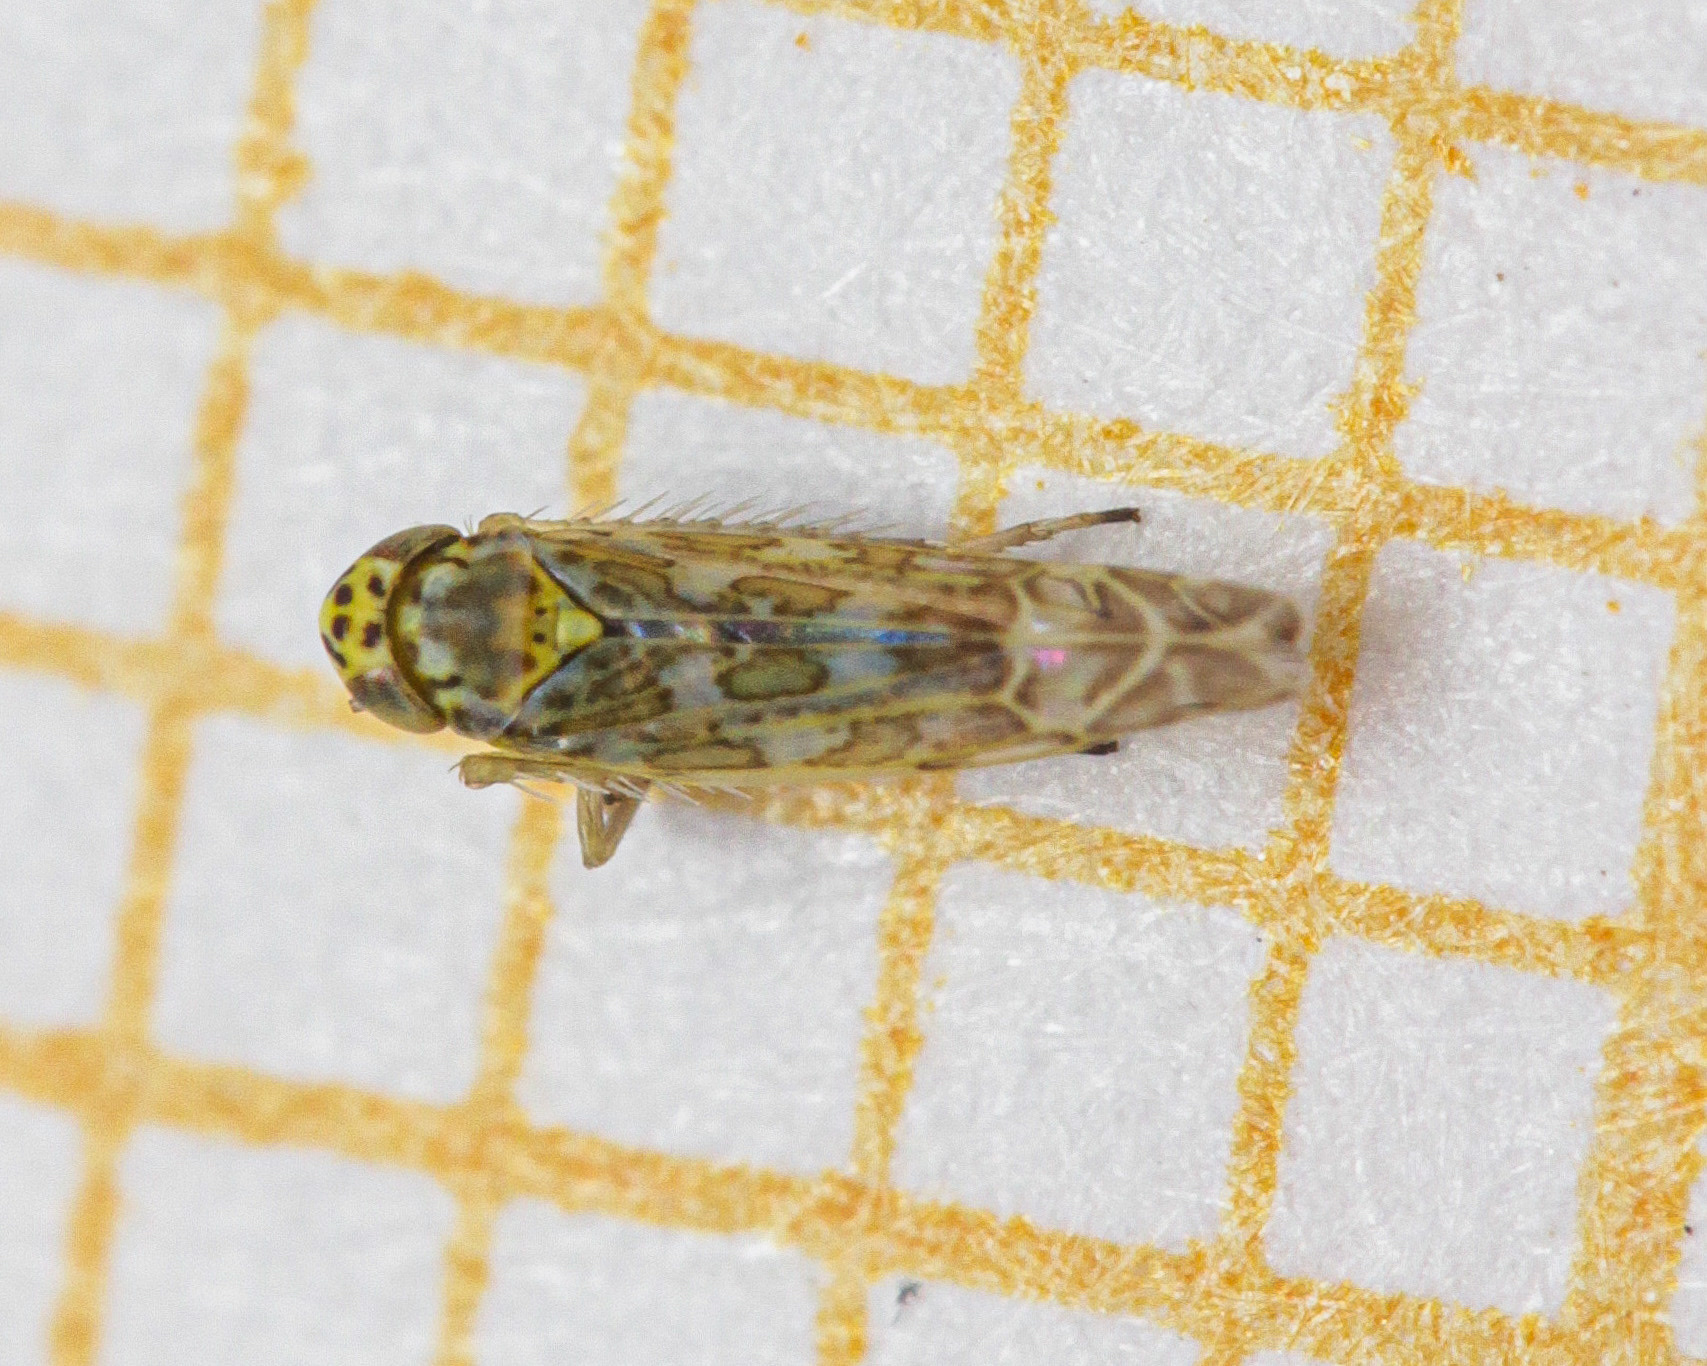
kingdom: Animalia
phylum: Arthropoda
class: Insecta
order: Hemiptera
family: Cicadellidae
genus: Eupteryx
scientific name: Eupteryx decemnotata
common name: Ligurian leafhopper
